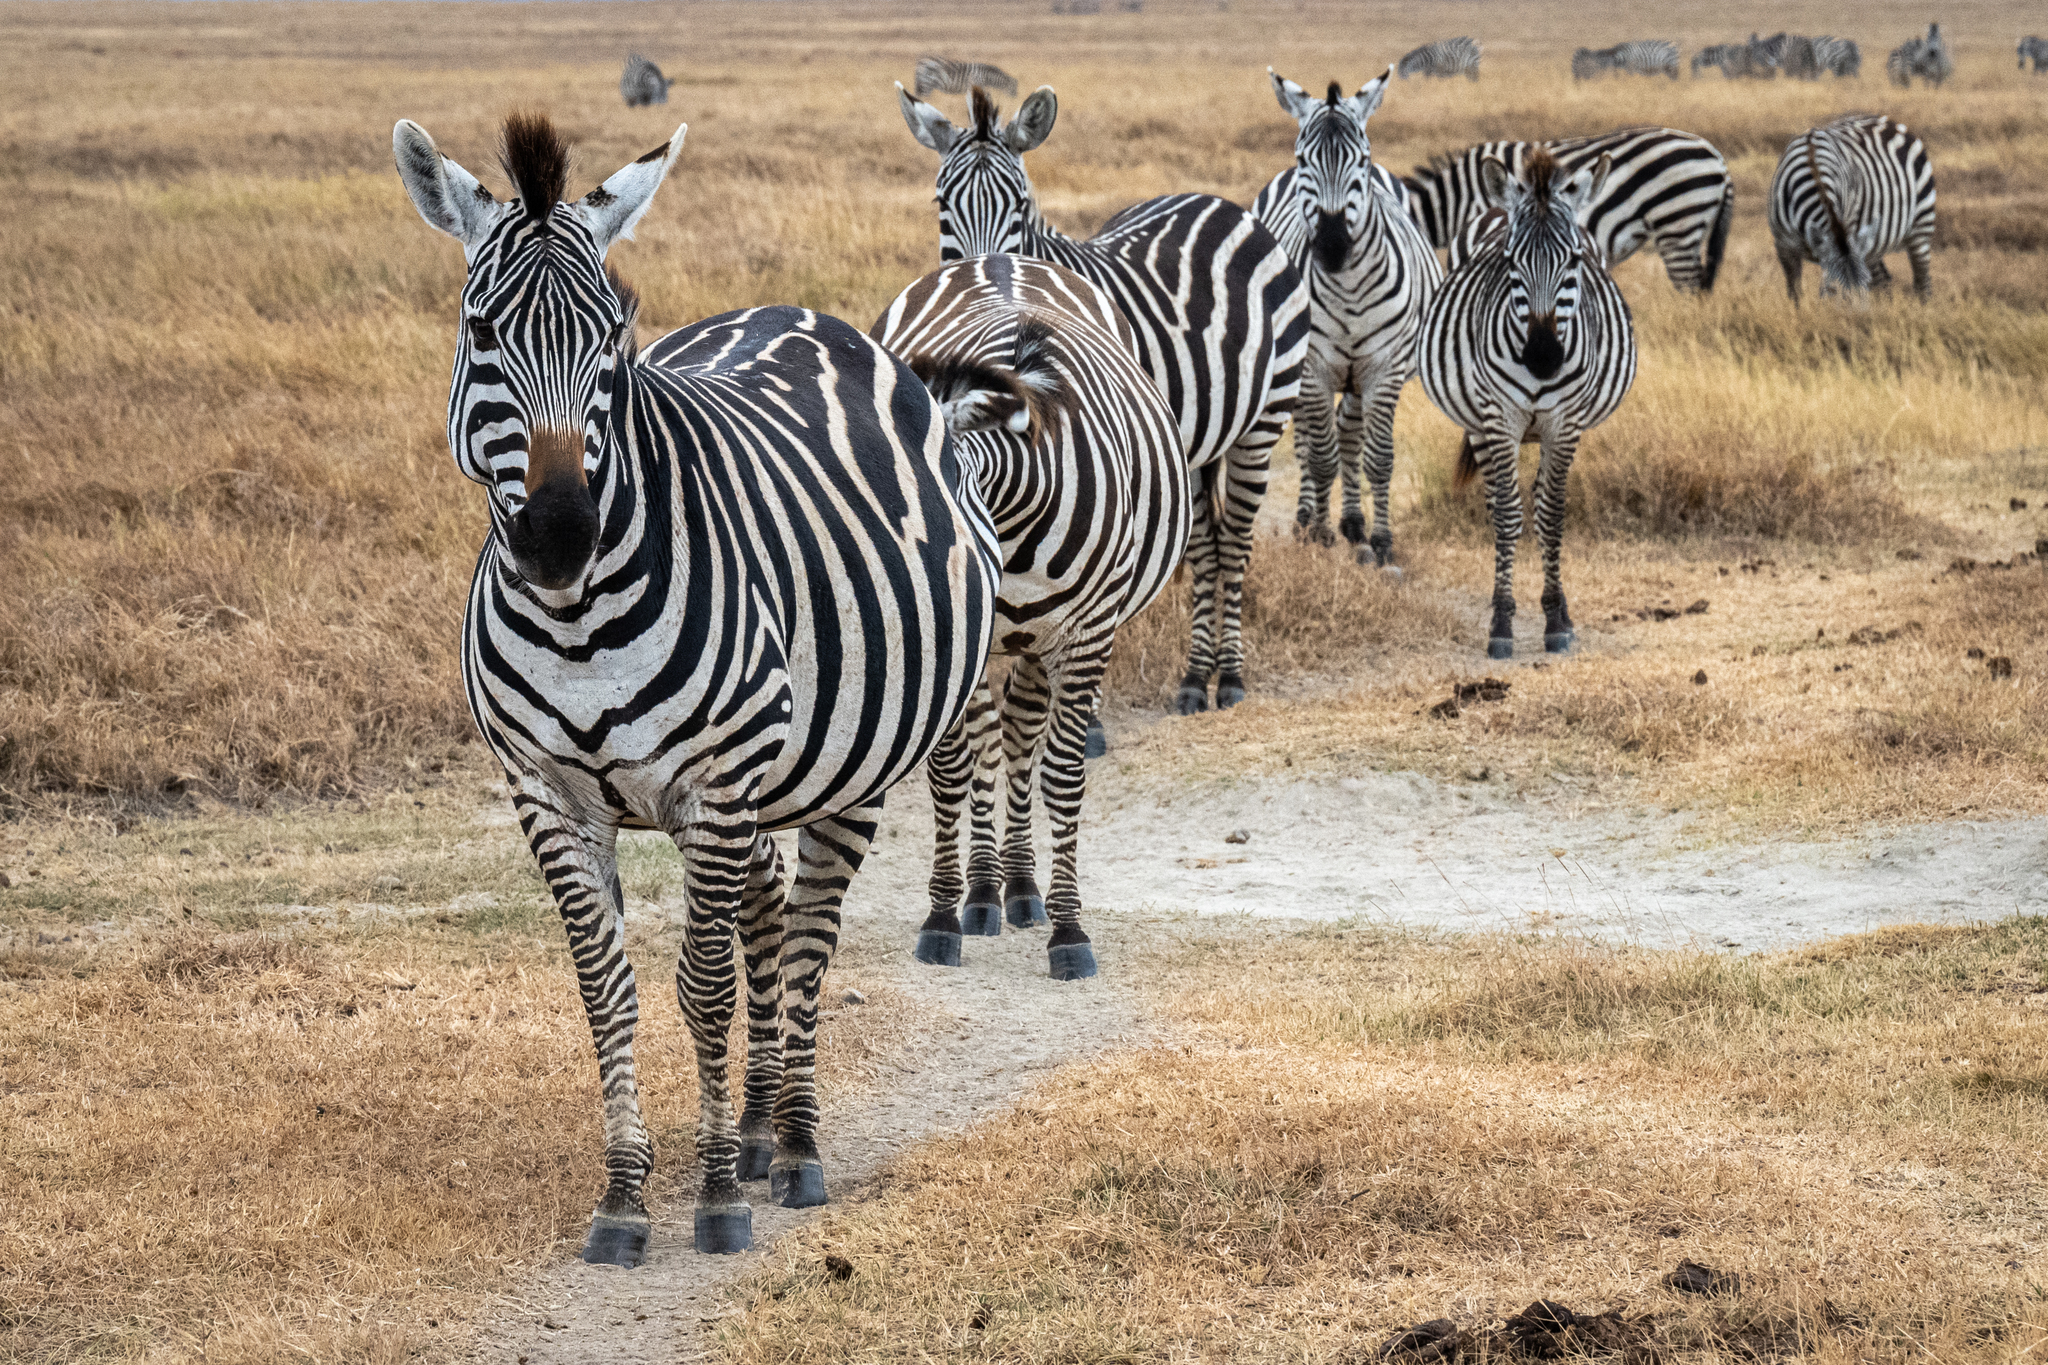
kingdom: Animalia
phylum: Chordata
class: Mammalia
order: Perissodactyla
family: Equidae
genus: Equus
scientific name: Equus quagga
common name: Plains zebra
